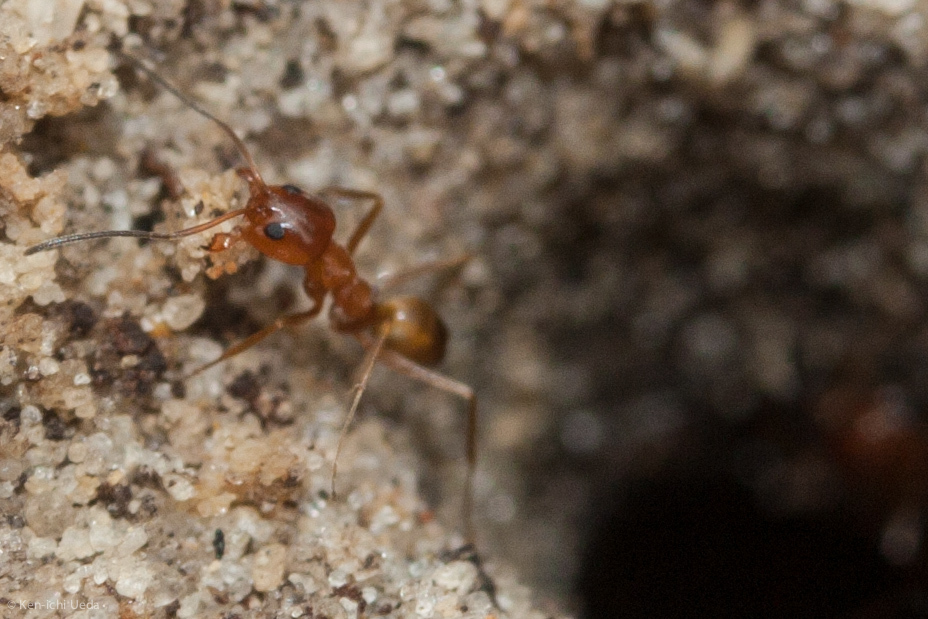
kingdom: Animalia
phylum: Arthropoda
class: Insecta
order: Hymenoptera
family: Formicidae
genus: Dorymyrmex
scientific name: Dorymyrmex bureni
